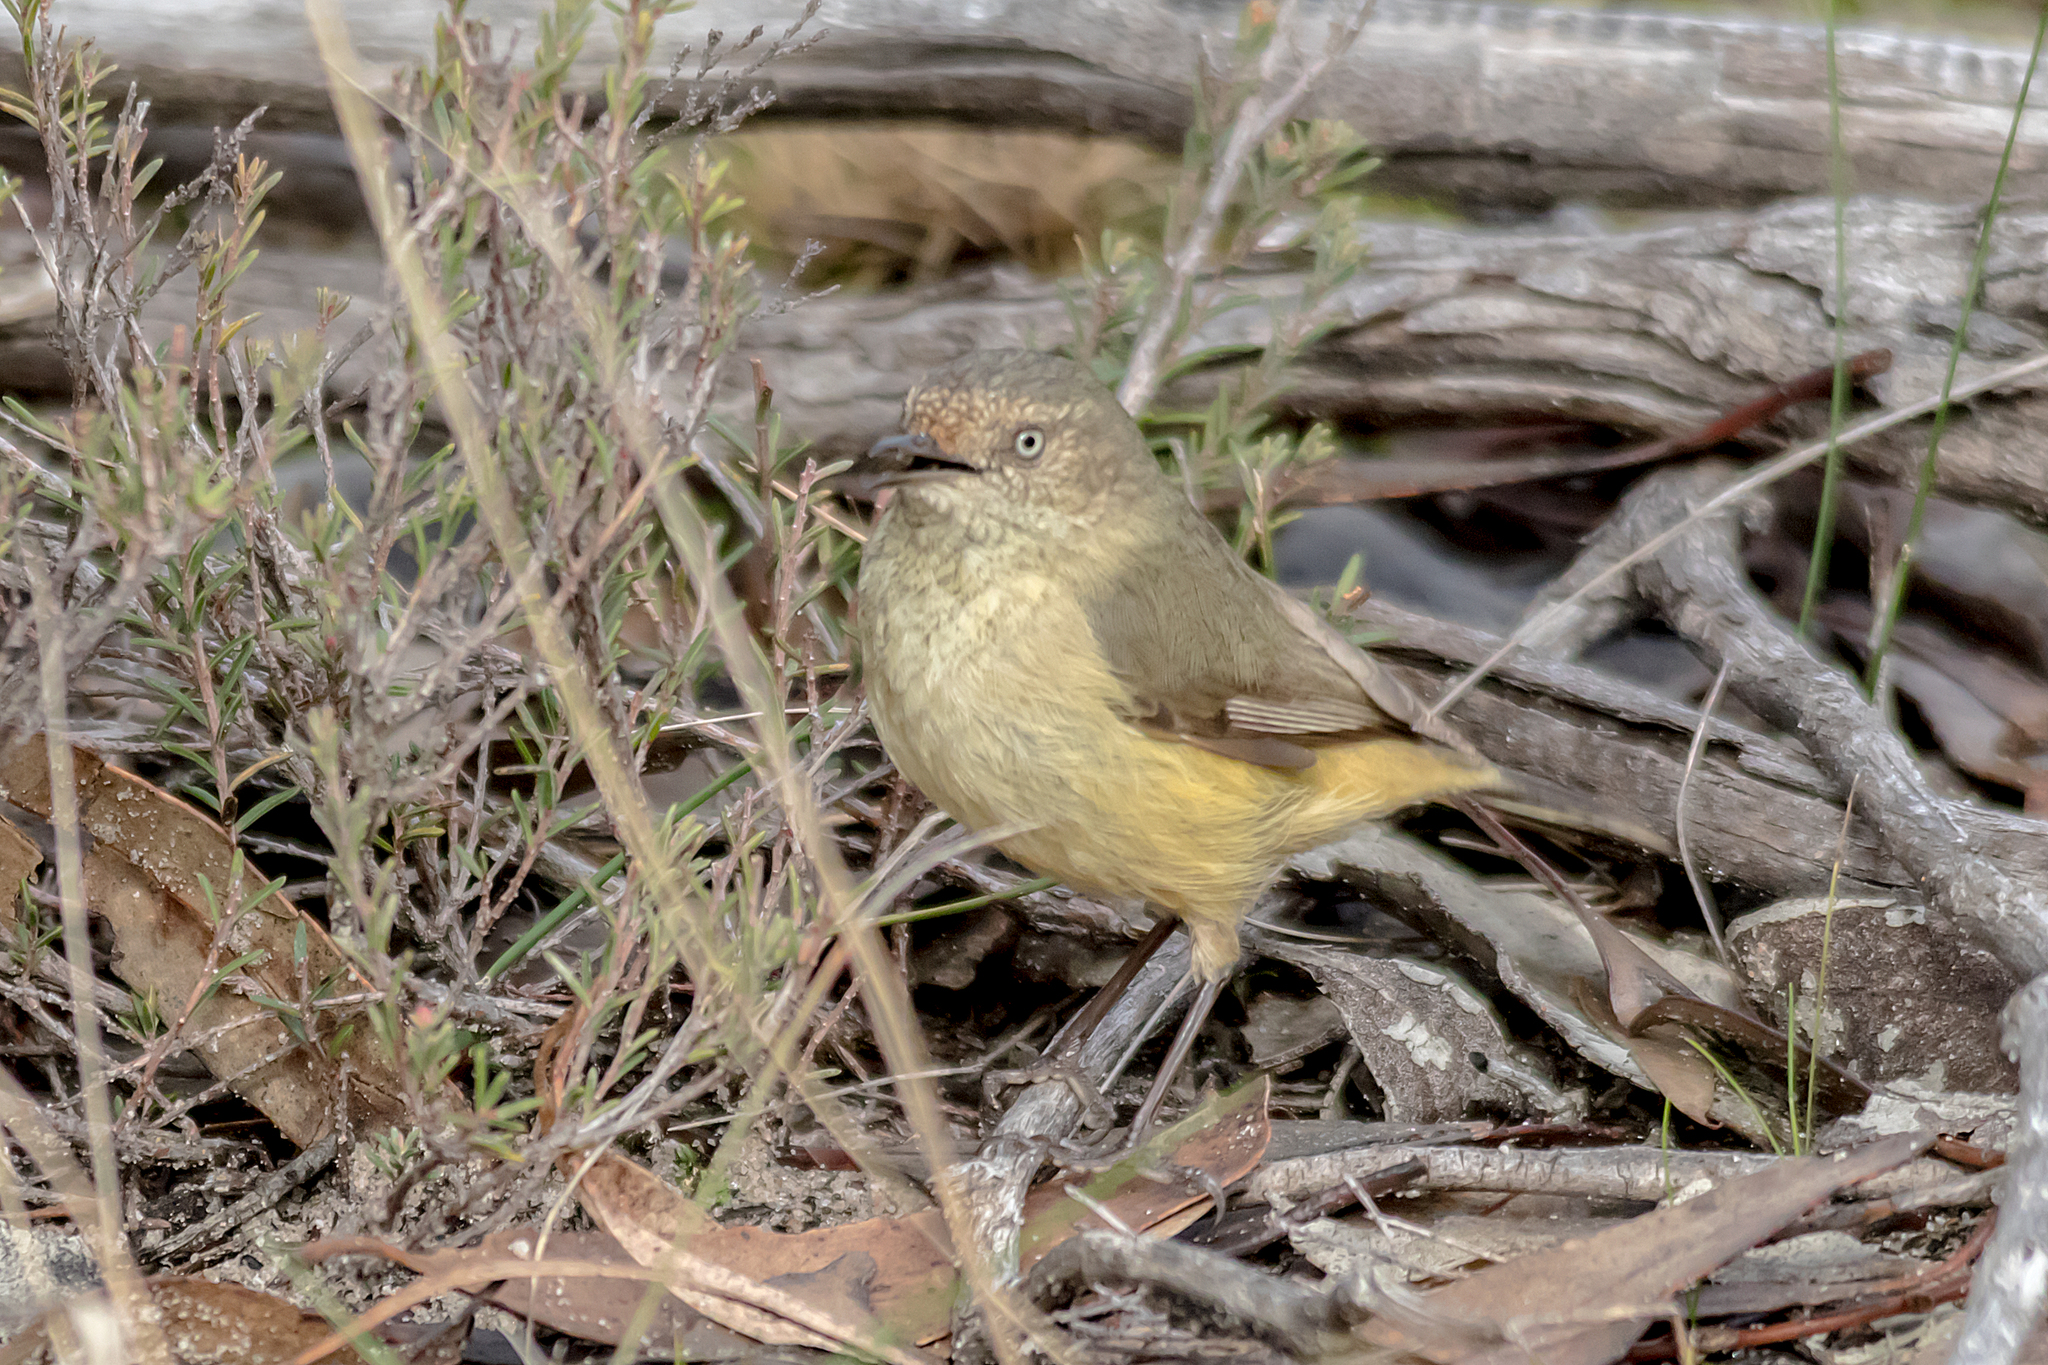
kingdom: Animalia
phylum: Chordata
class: Aves
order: Passeriformes
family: Acanthizidae
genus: Acanthiza
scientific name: Acanthiza reguloides
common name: Buff-rumped thornbill
